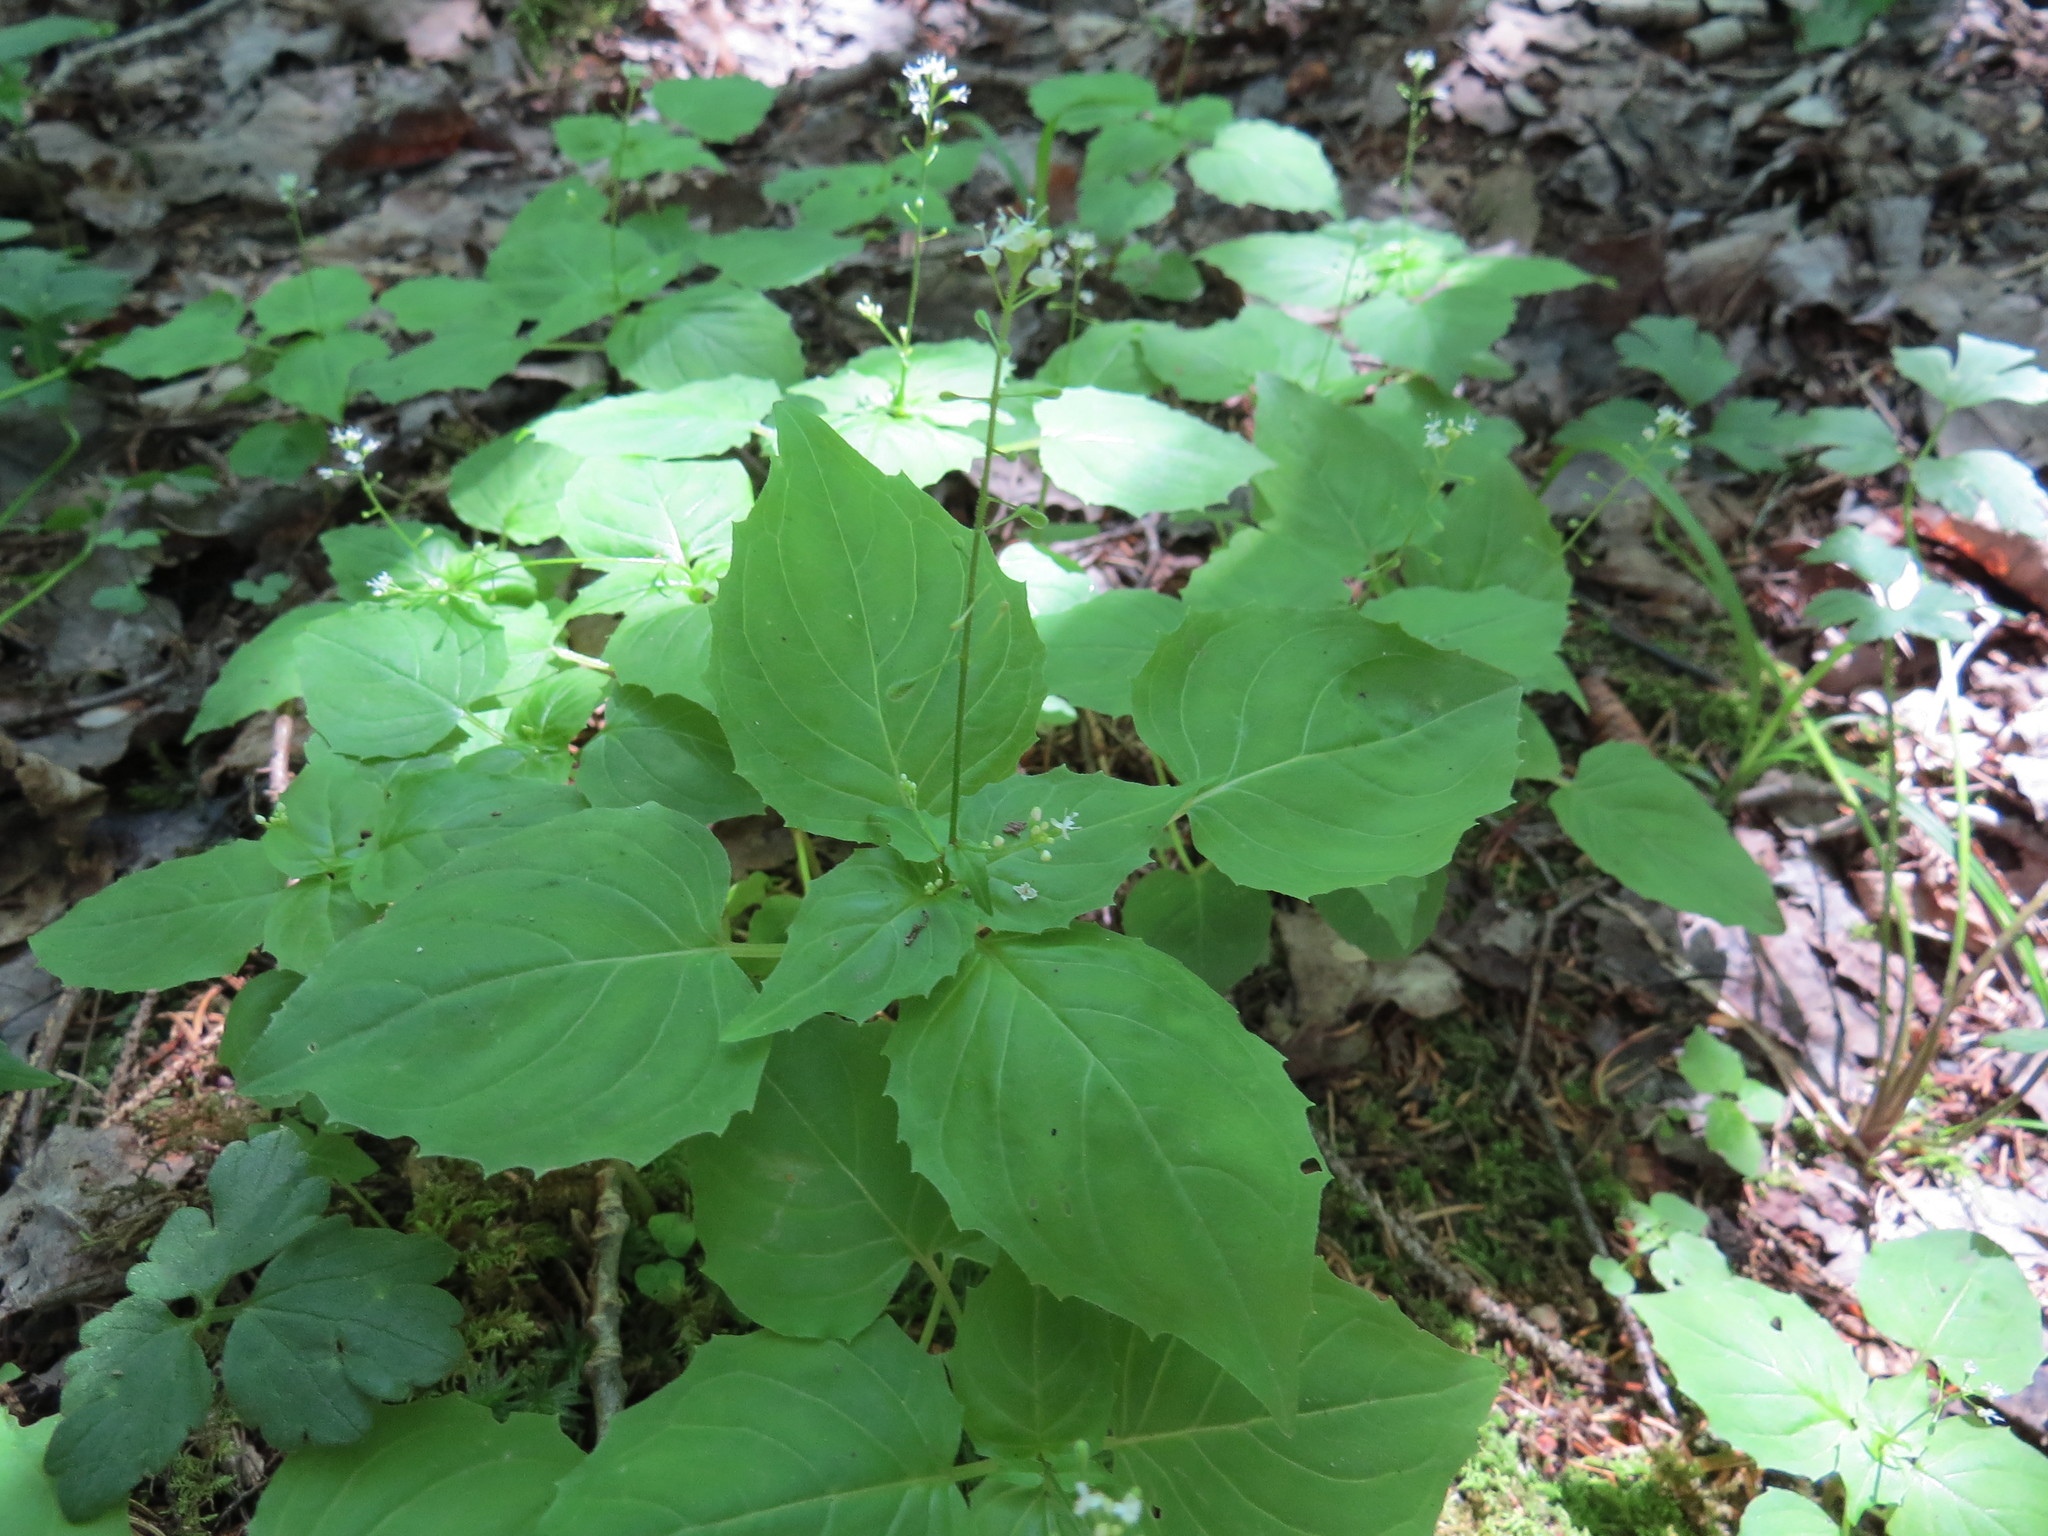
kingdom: Plantae
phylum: Tracheophyta
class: Magnoliopsida
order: Myrtales
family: Onagraceae
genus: Circaea
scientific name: Circaea canadensis
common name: Broad-leaved enchanter's nightshade
